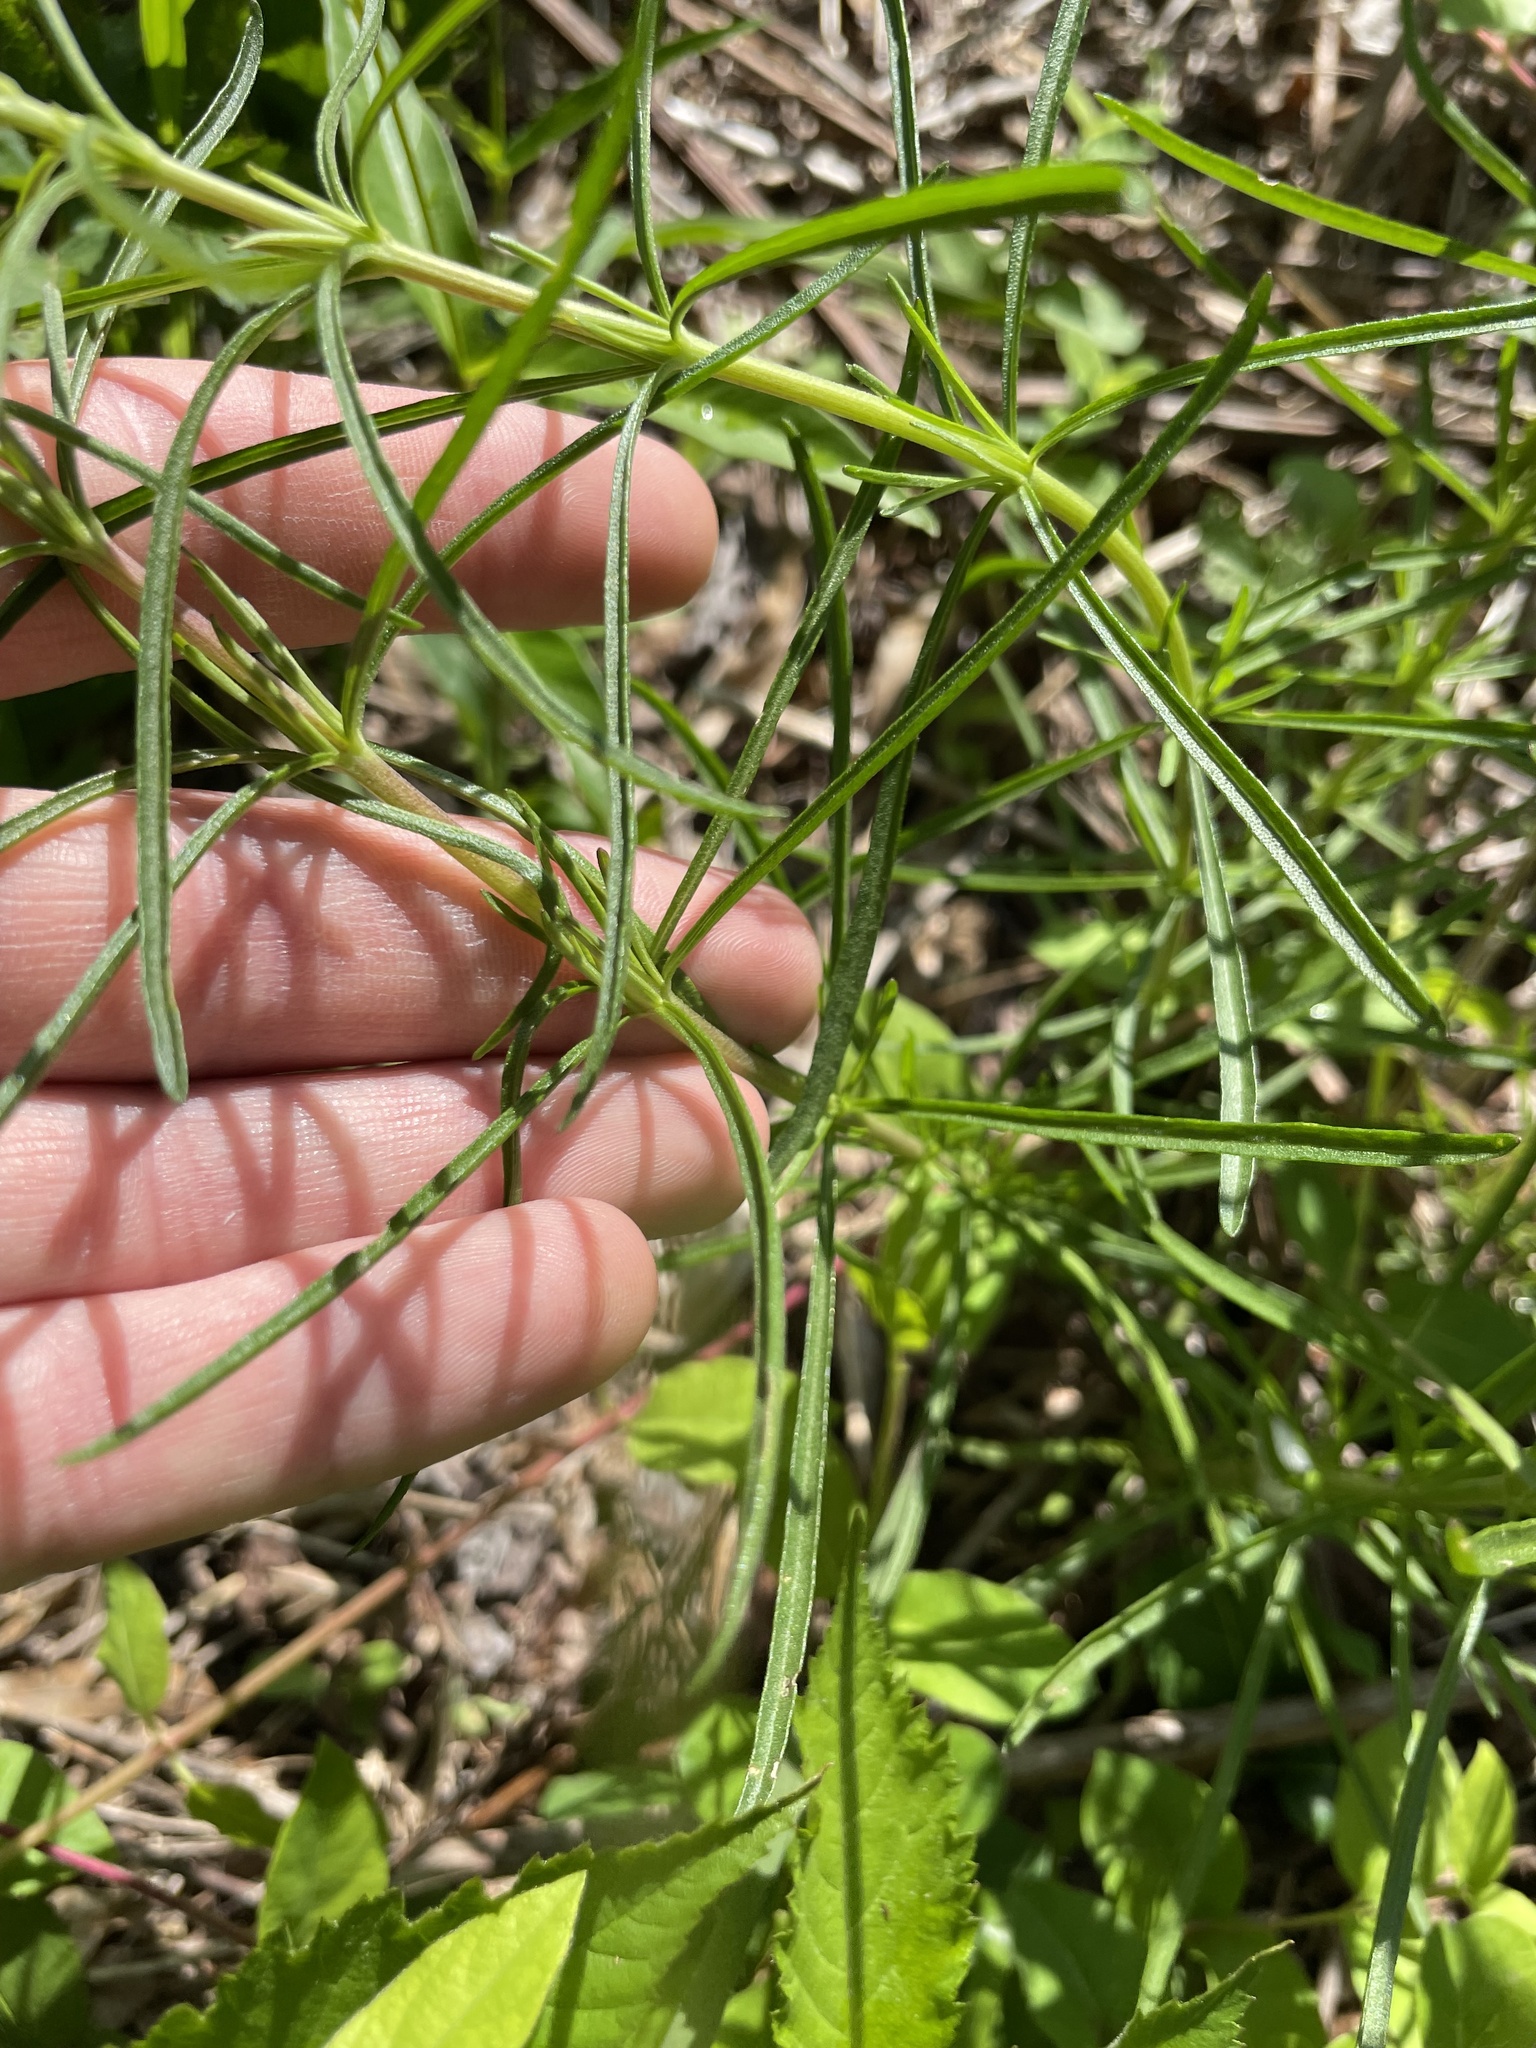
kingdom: Plantae
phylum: Tracheophyta
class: Magnoliopsida
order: Asterales
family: Asteraceae
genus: Eupatorium
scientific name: Eupatorium hyssopifolium
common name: Hyssop-leaf thoroughwort
